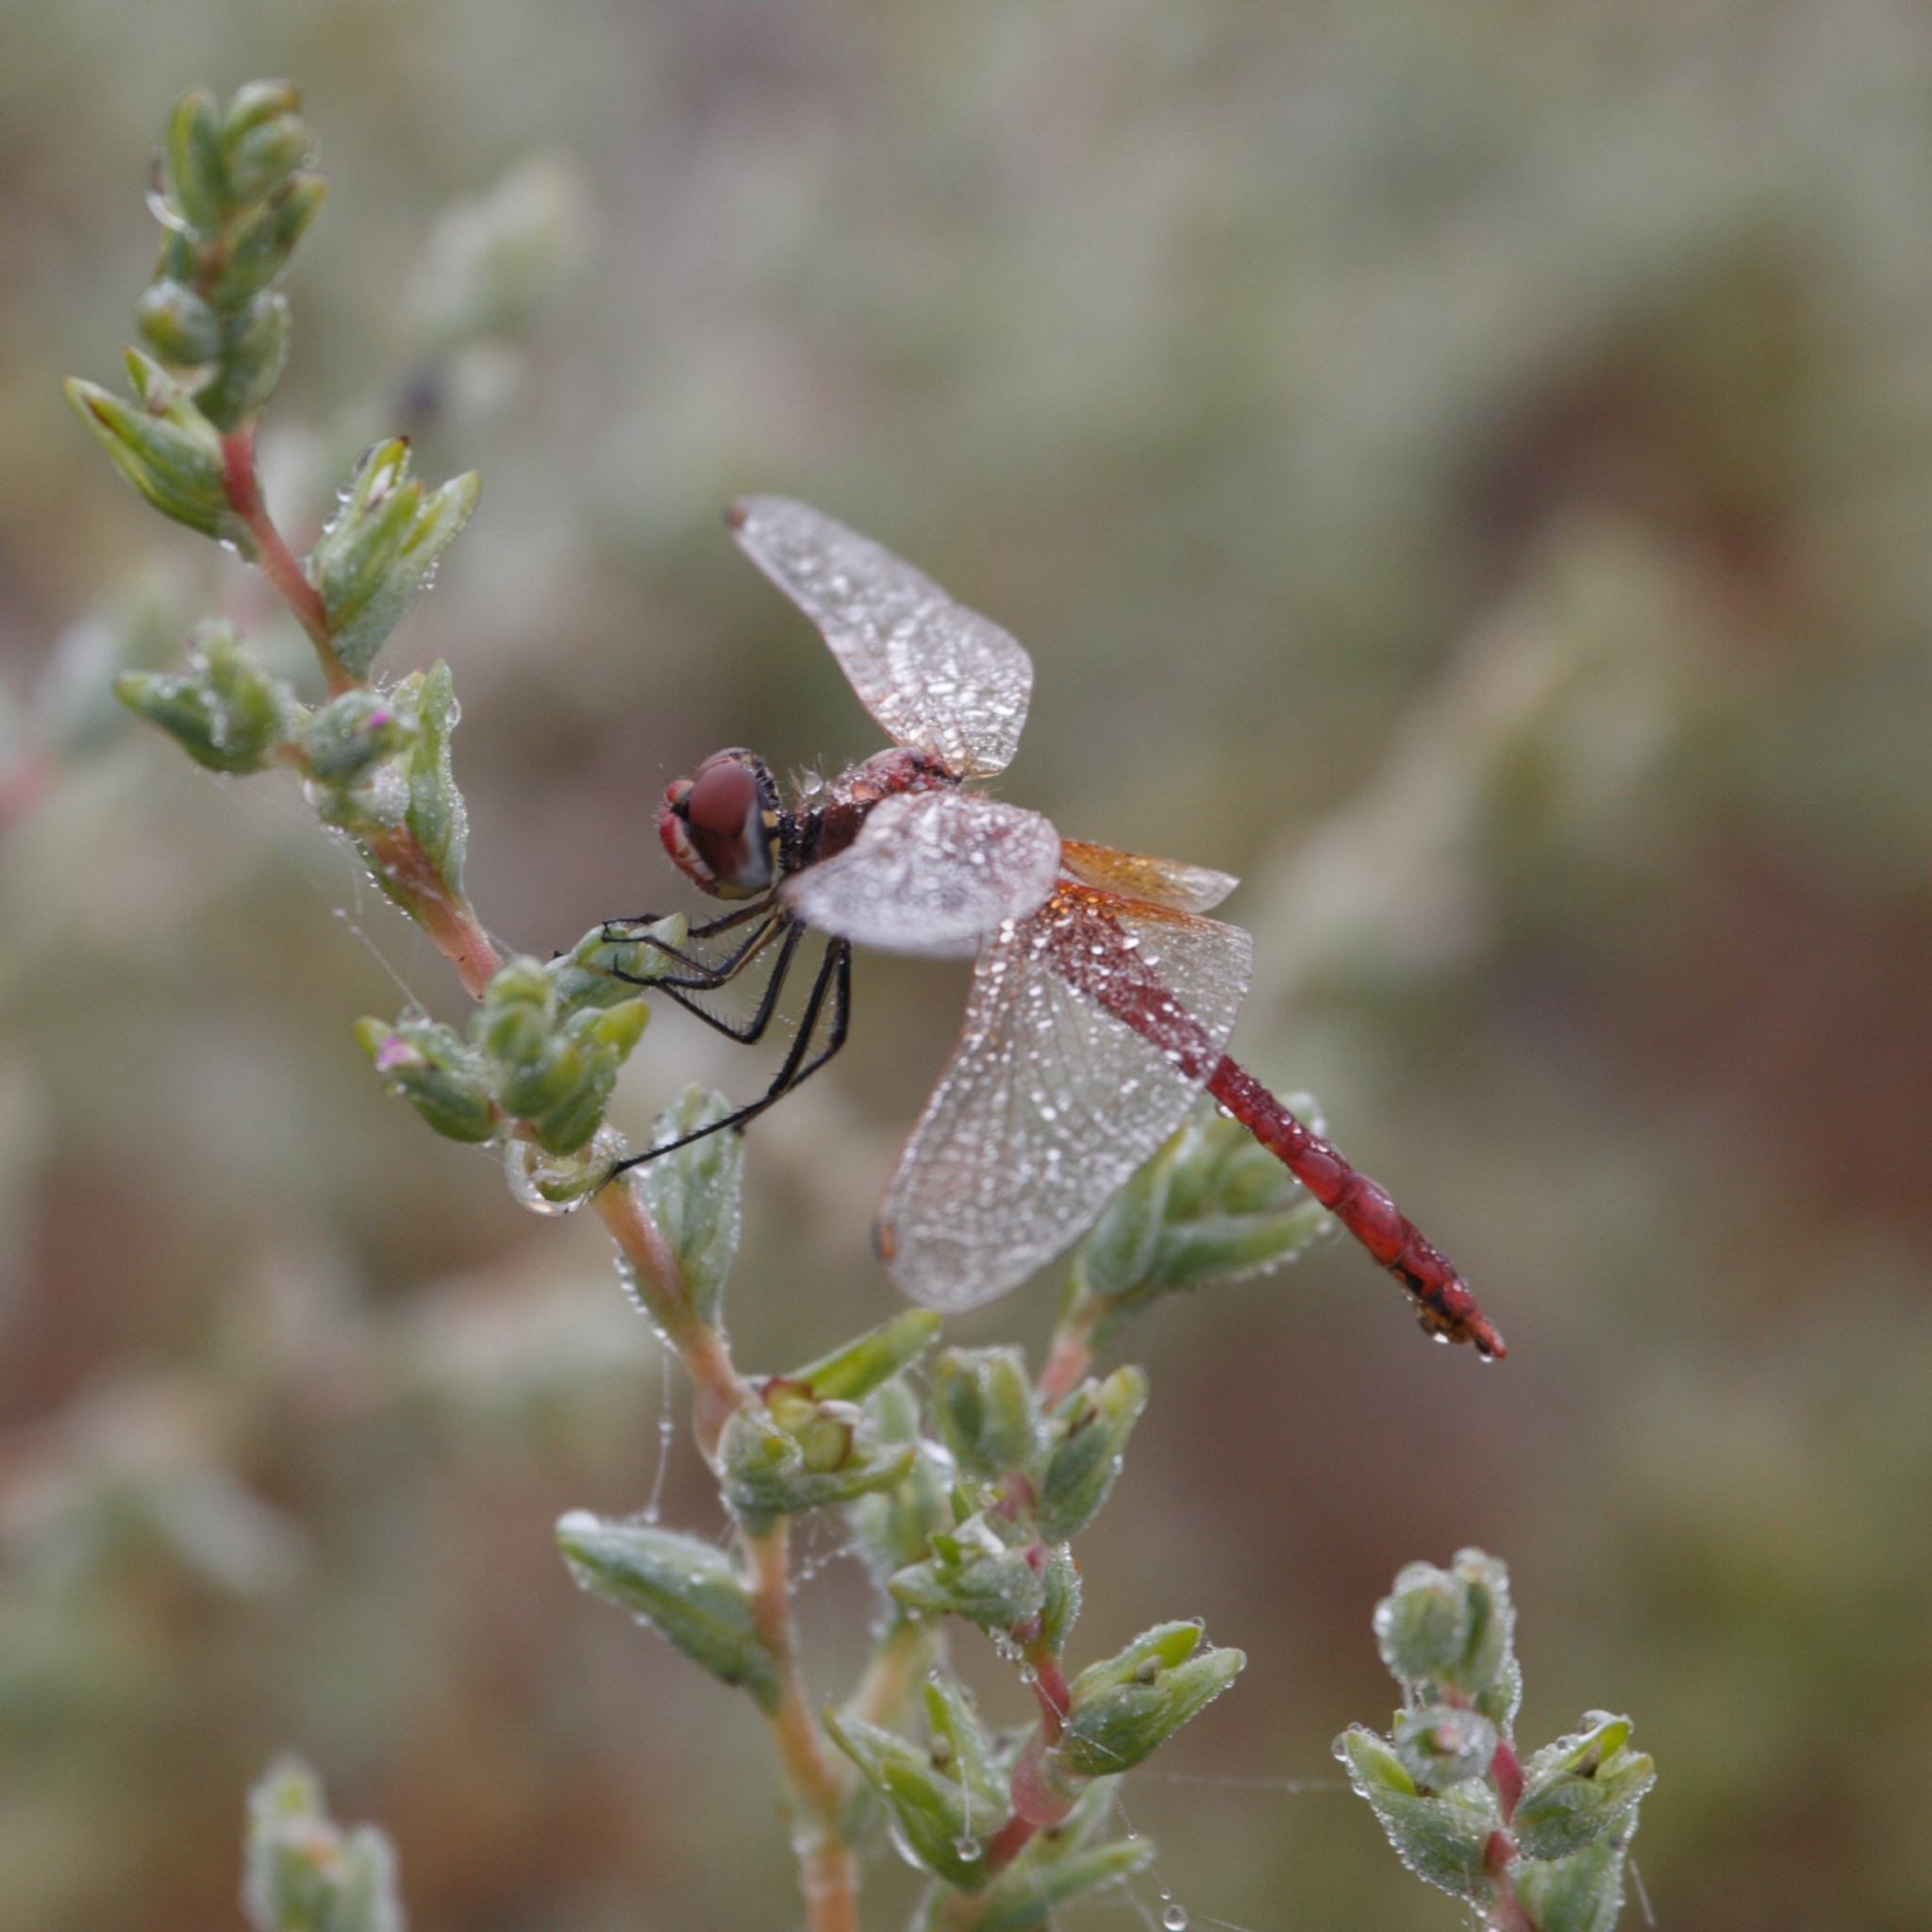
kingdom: Animalia
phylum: Arthropoda
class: Insecta
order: Odonata
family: Libellulidae
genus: Sympetrum
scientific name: Sympetrum fonscolombii
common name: Red-veined darter
